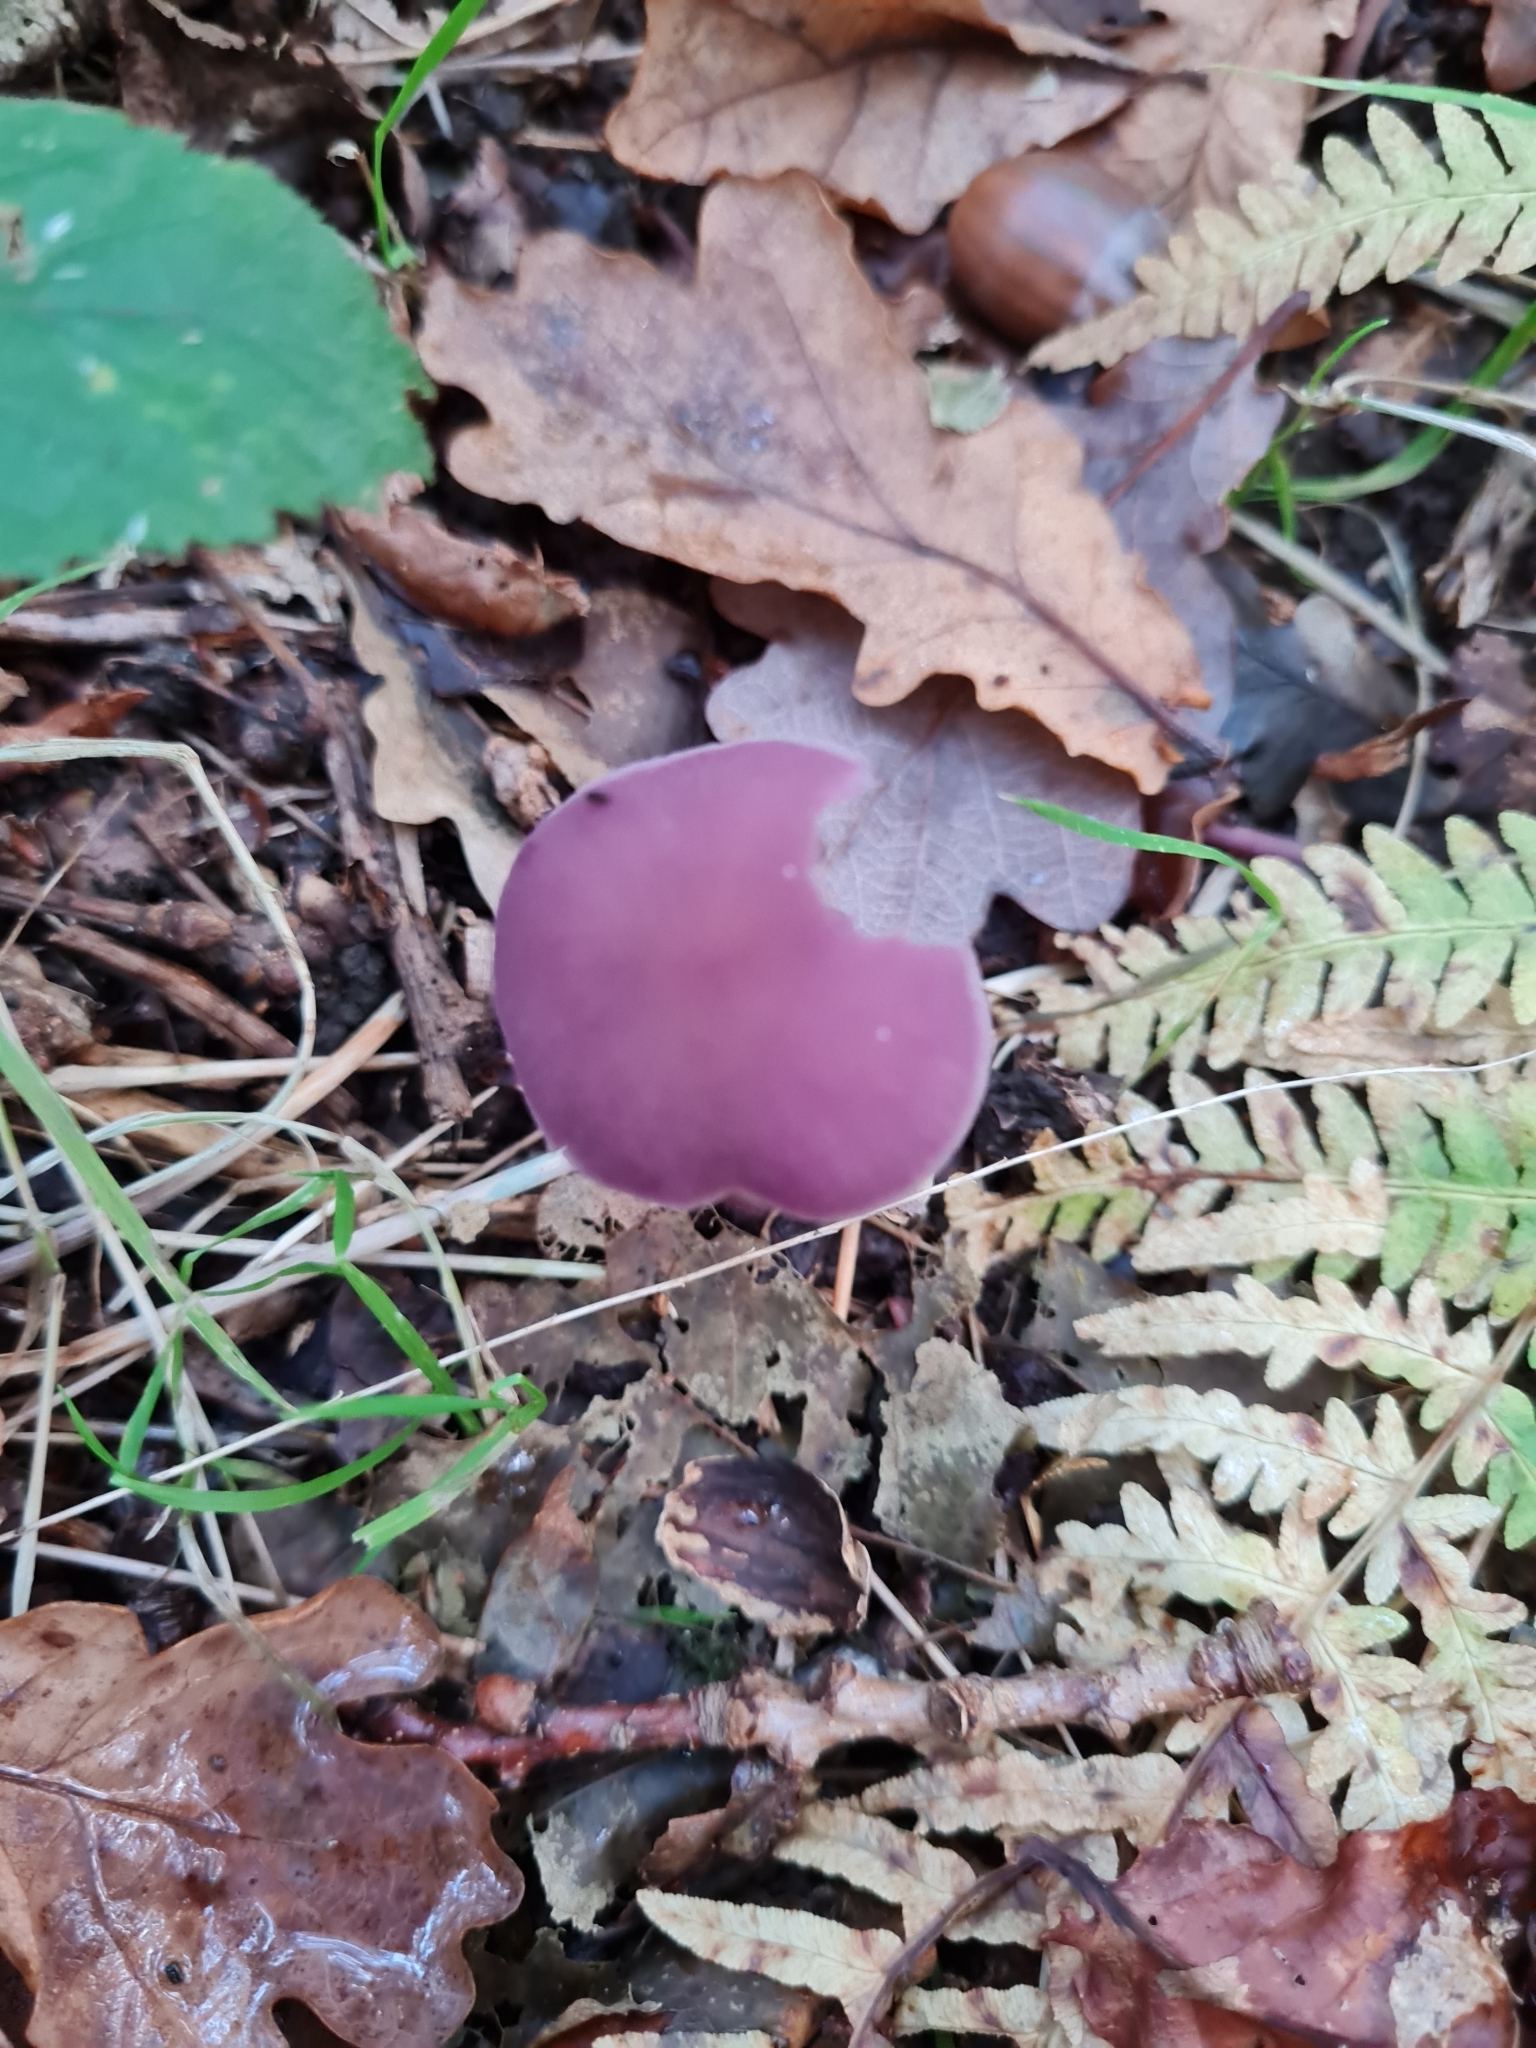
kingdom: Fungi
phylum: Basidiomycota
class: Agaricomycetes
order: Agaricales
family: Hydnangiaceae
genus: Laccaria
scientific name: Laccaria amethystina
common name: Amethyst deceiver
